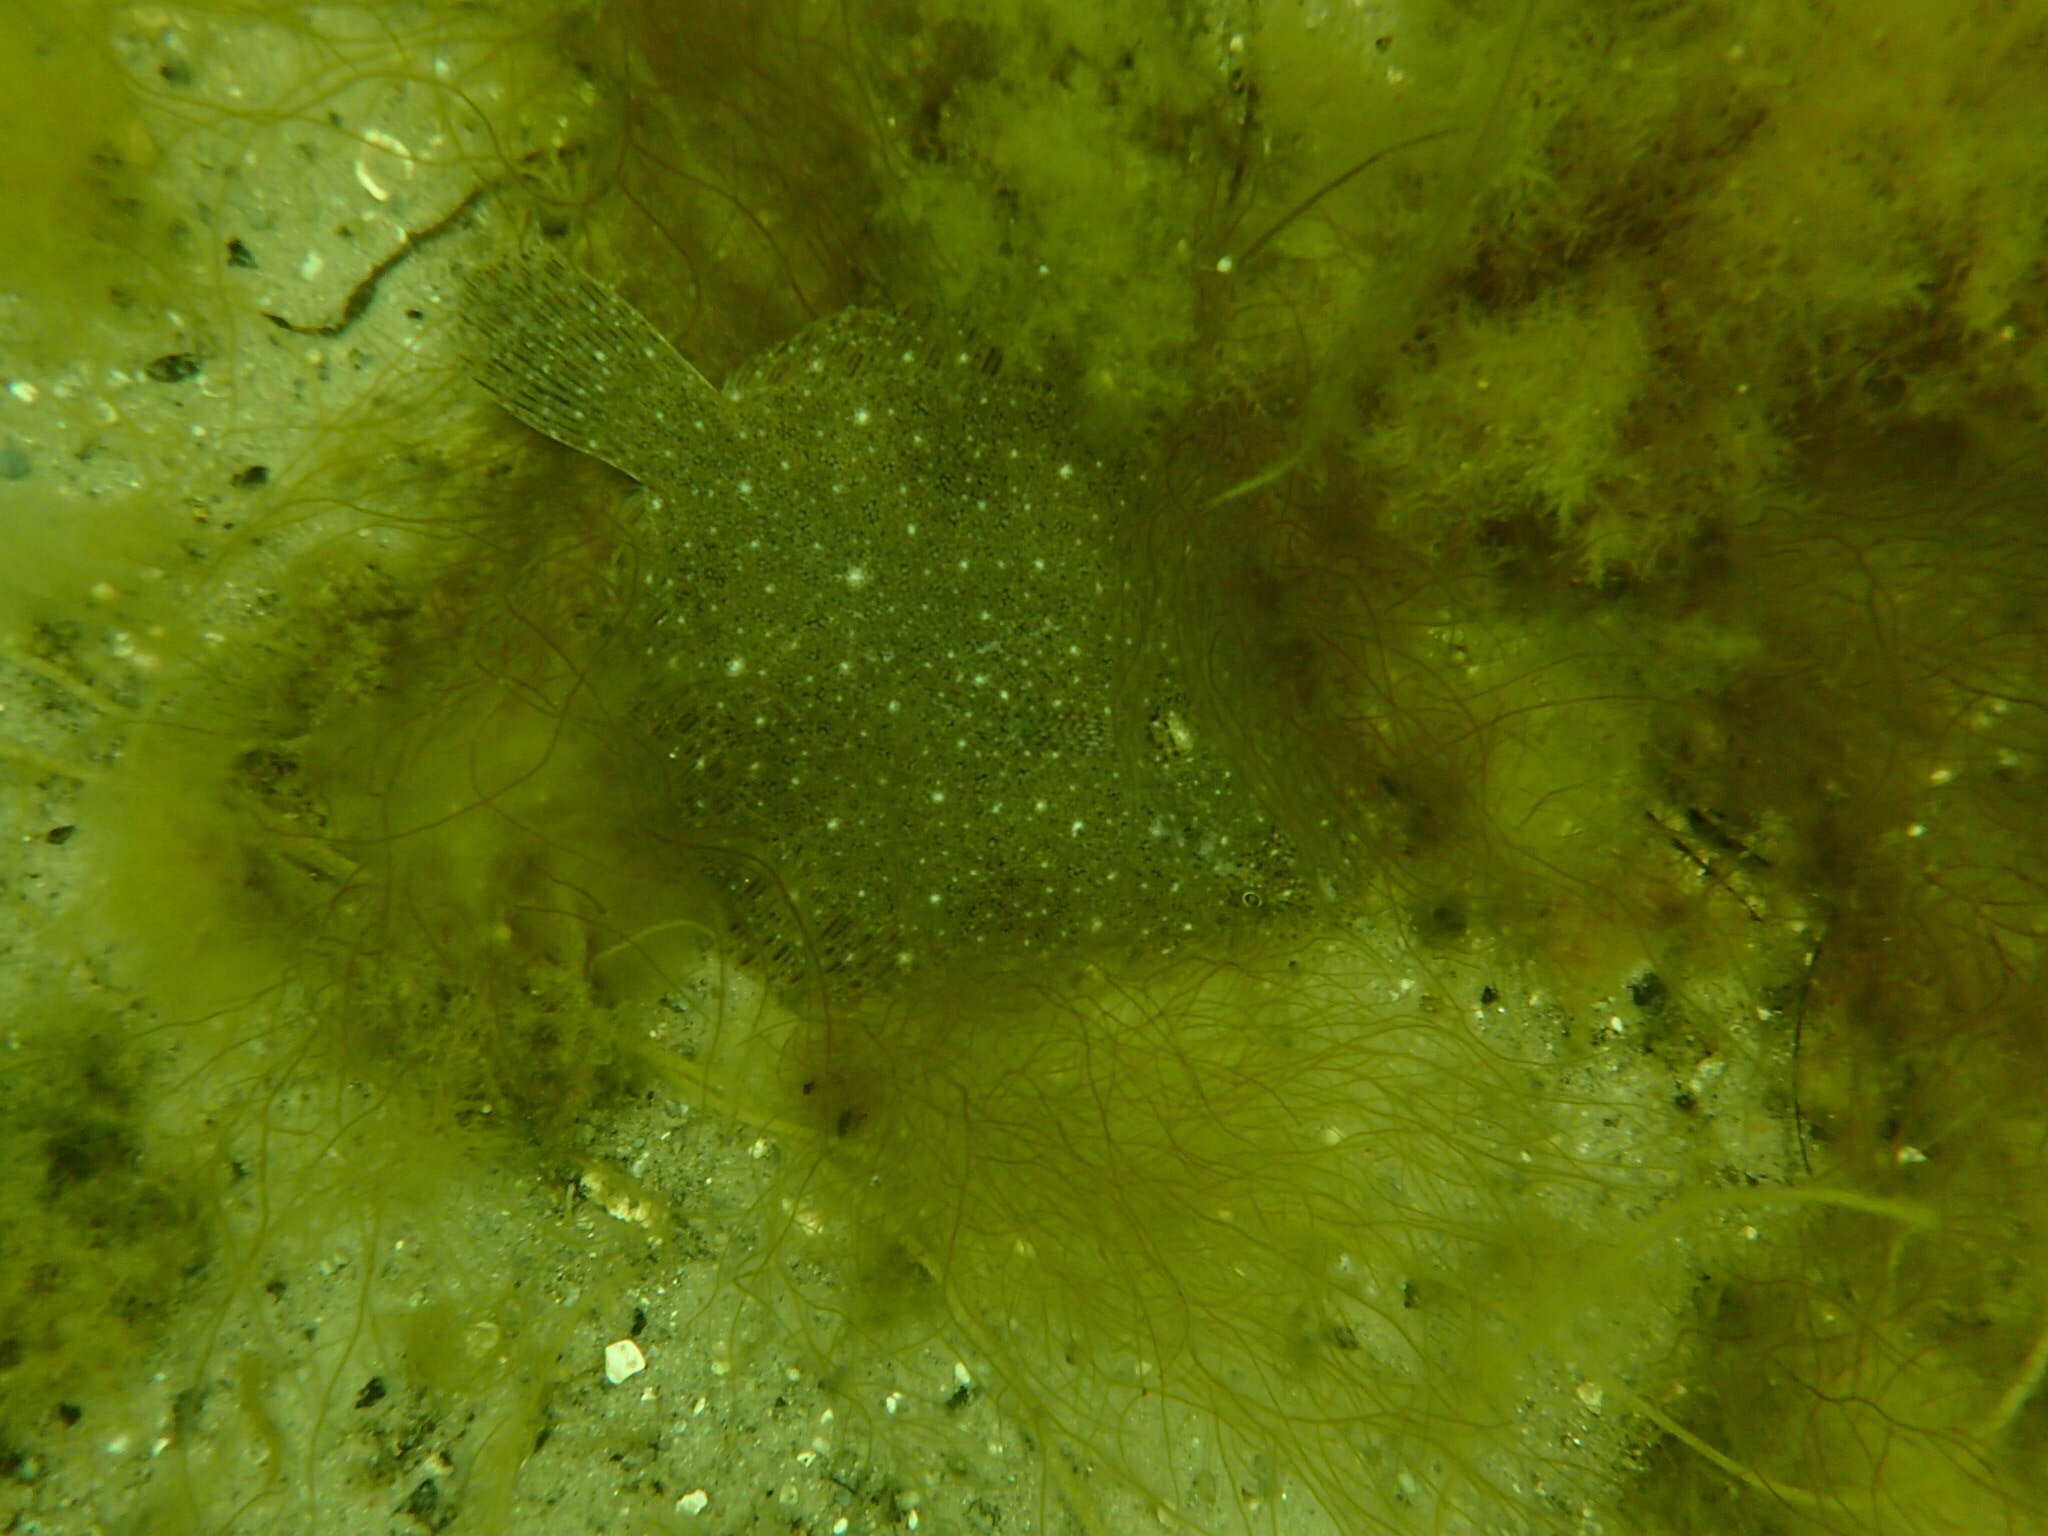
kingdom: Animalia
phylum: Chordata
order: Pleuronectiformes
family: Pleuronectidae
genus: Pseudopleuronectes
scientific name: Pseudopleuronectes americanus
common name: Black backs
